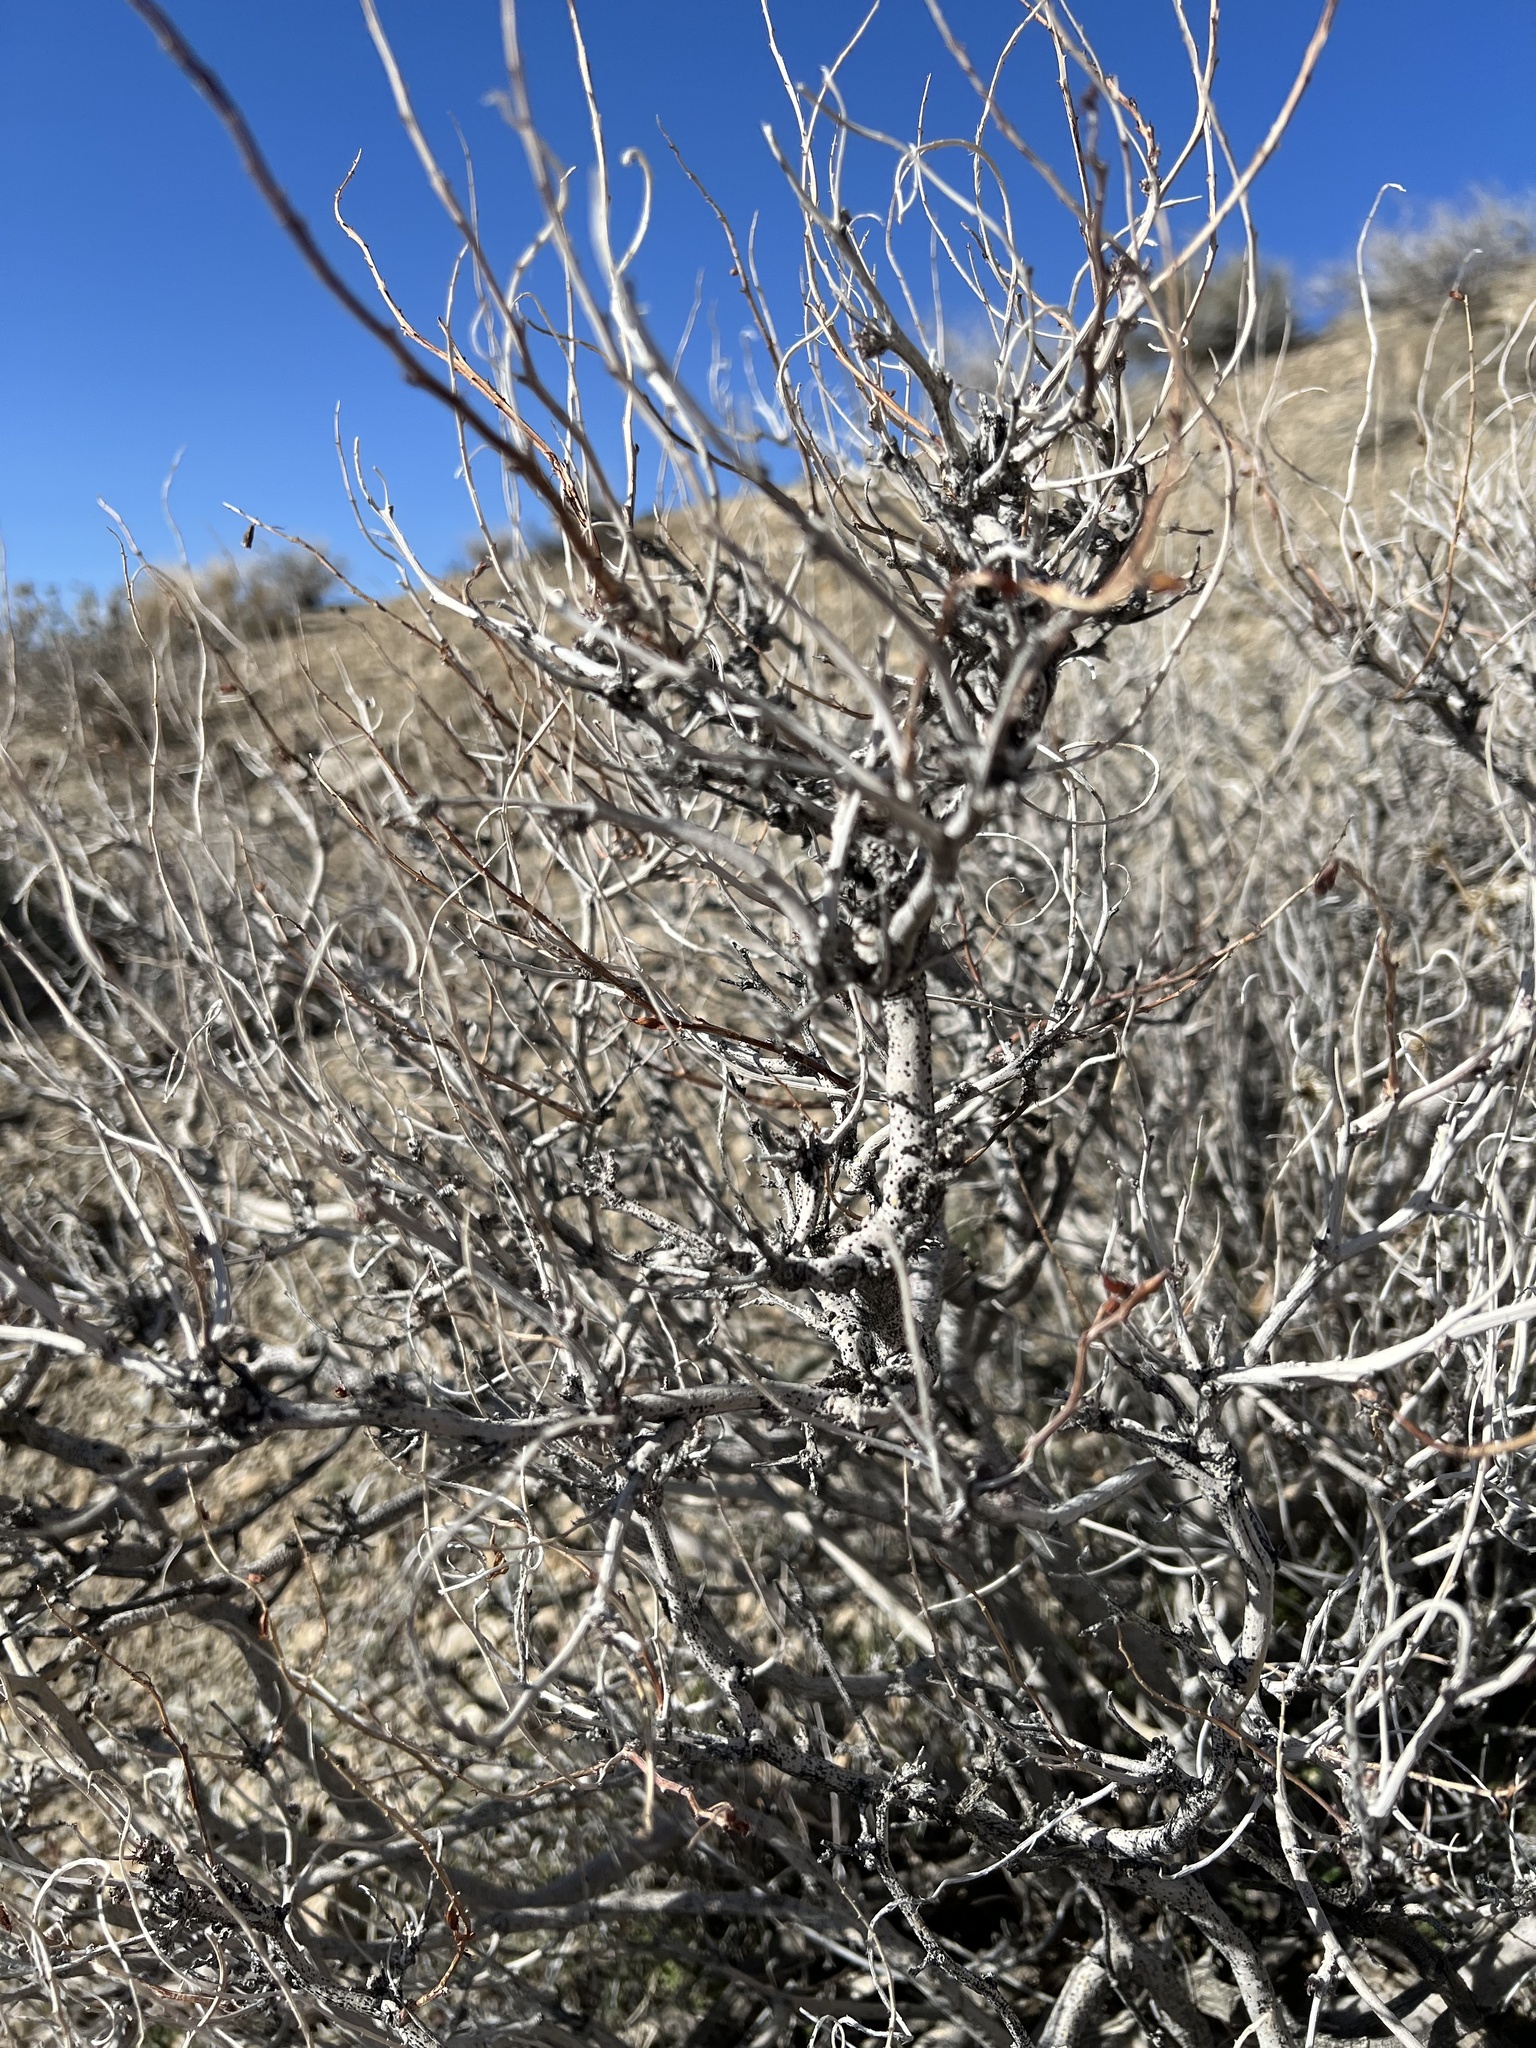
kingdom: Plantae
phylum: Tracheophyta
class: Magnoliopsida
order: Fabales
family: Fabaceae
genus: Psorothamnus
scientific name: Psorothamnus arborescens
